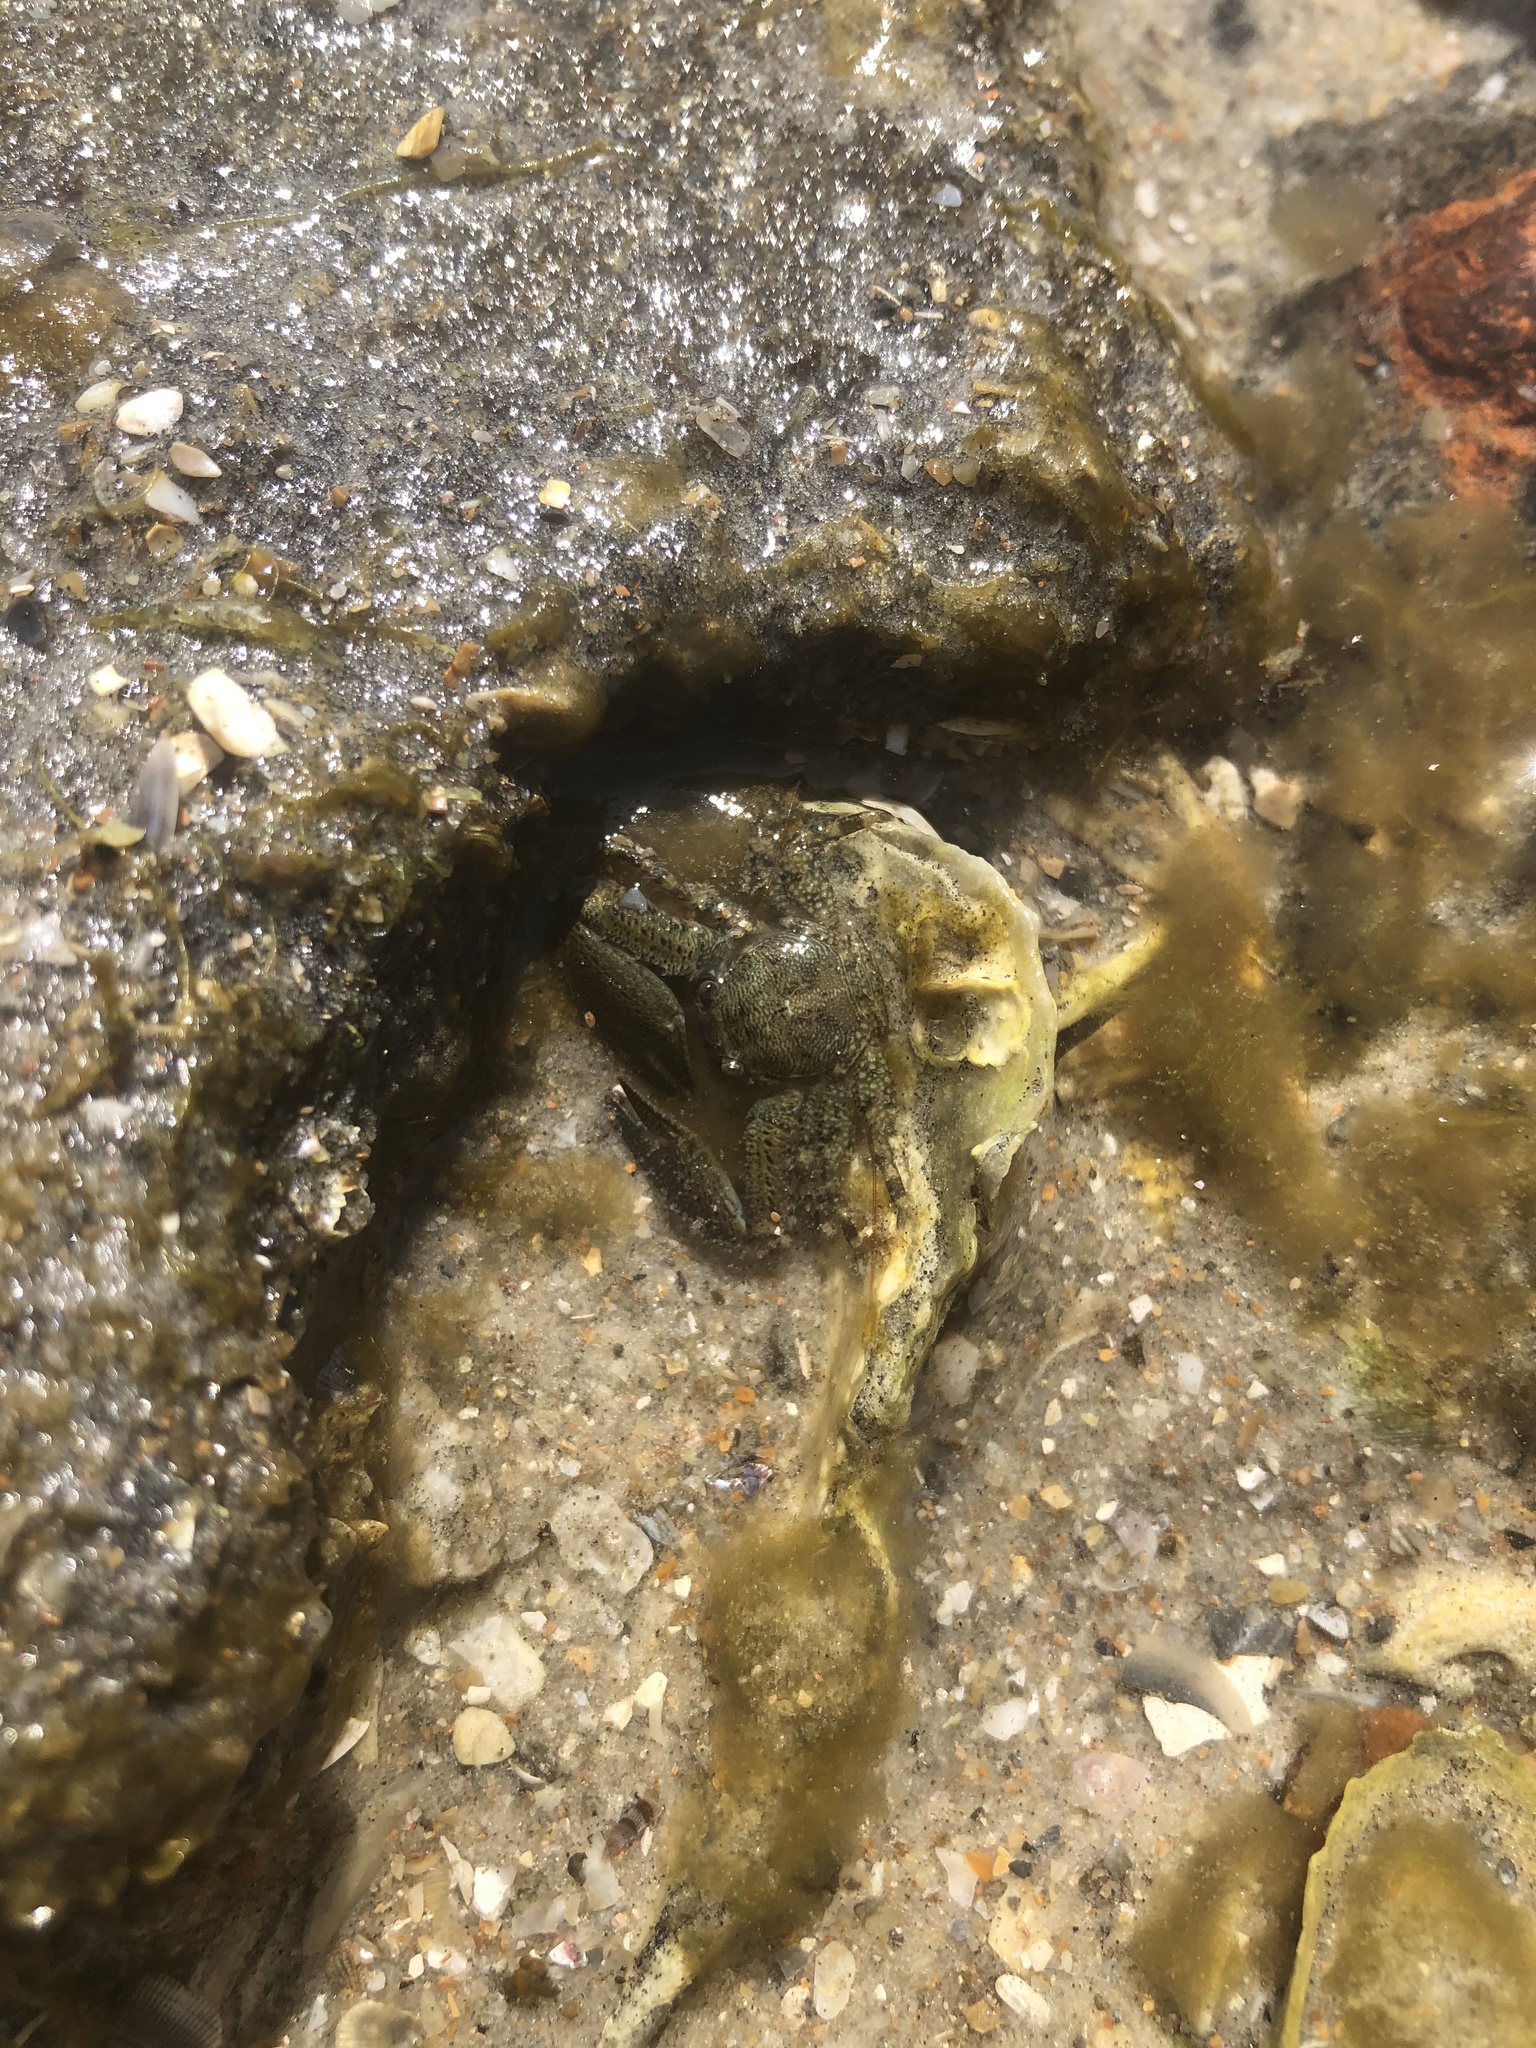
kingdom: Animalia
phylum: Arthropoda
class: Malacostraca
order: Decapoda
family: Porcellanidae
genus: Petrolisthes
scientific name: Petrolisthes armatus
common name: Green porcelain crab
